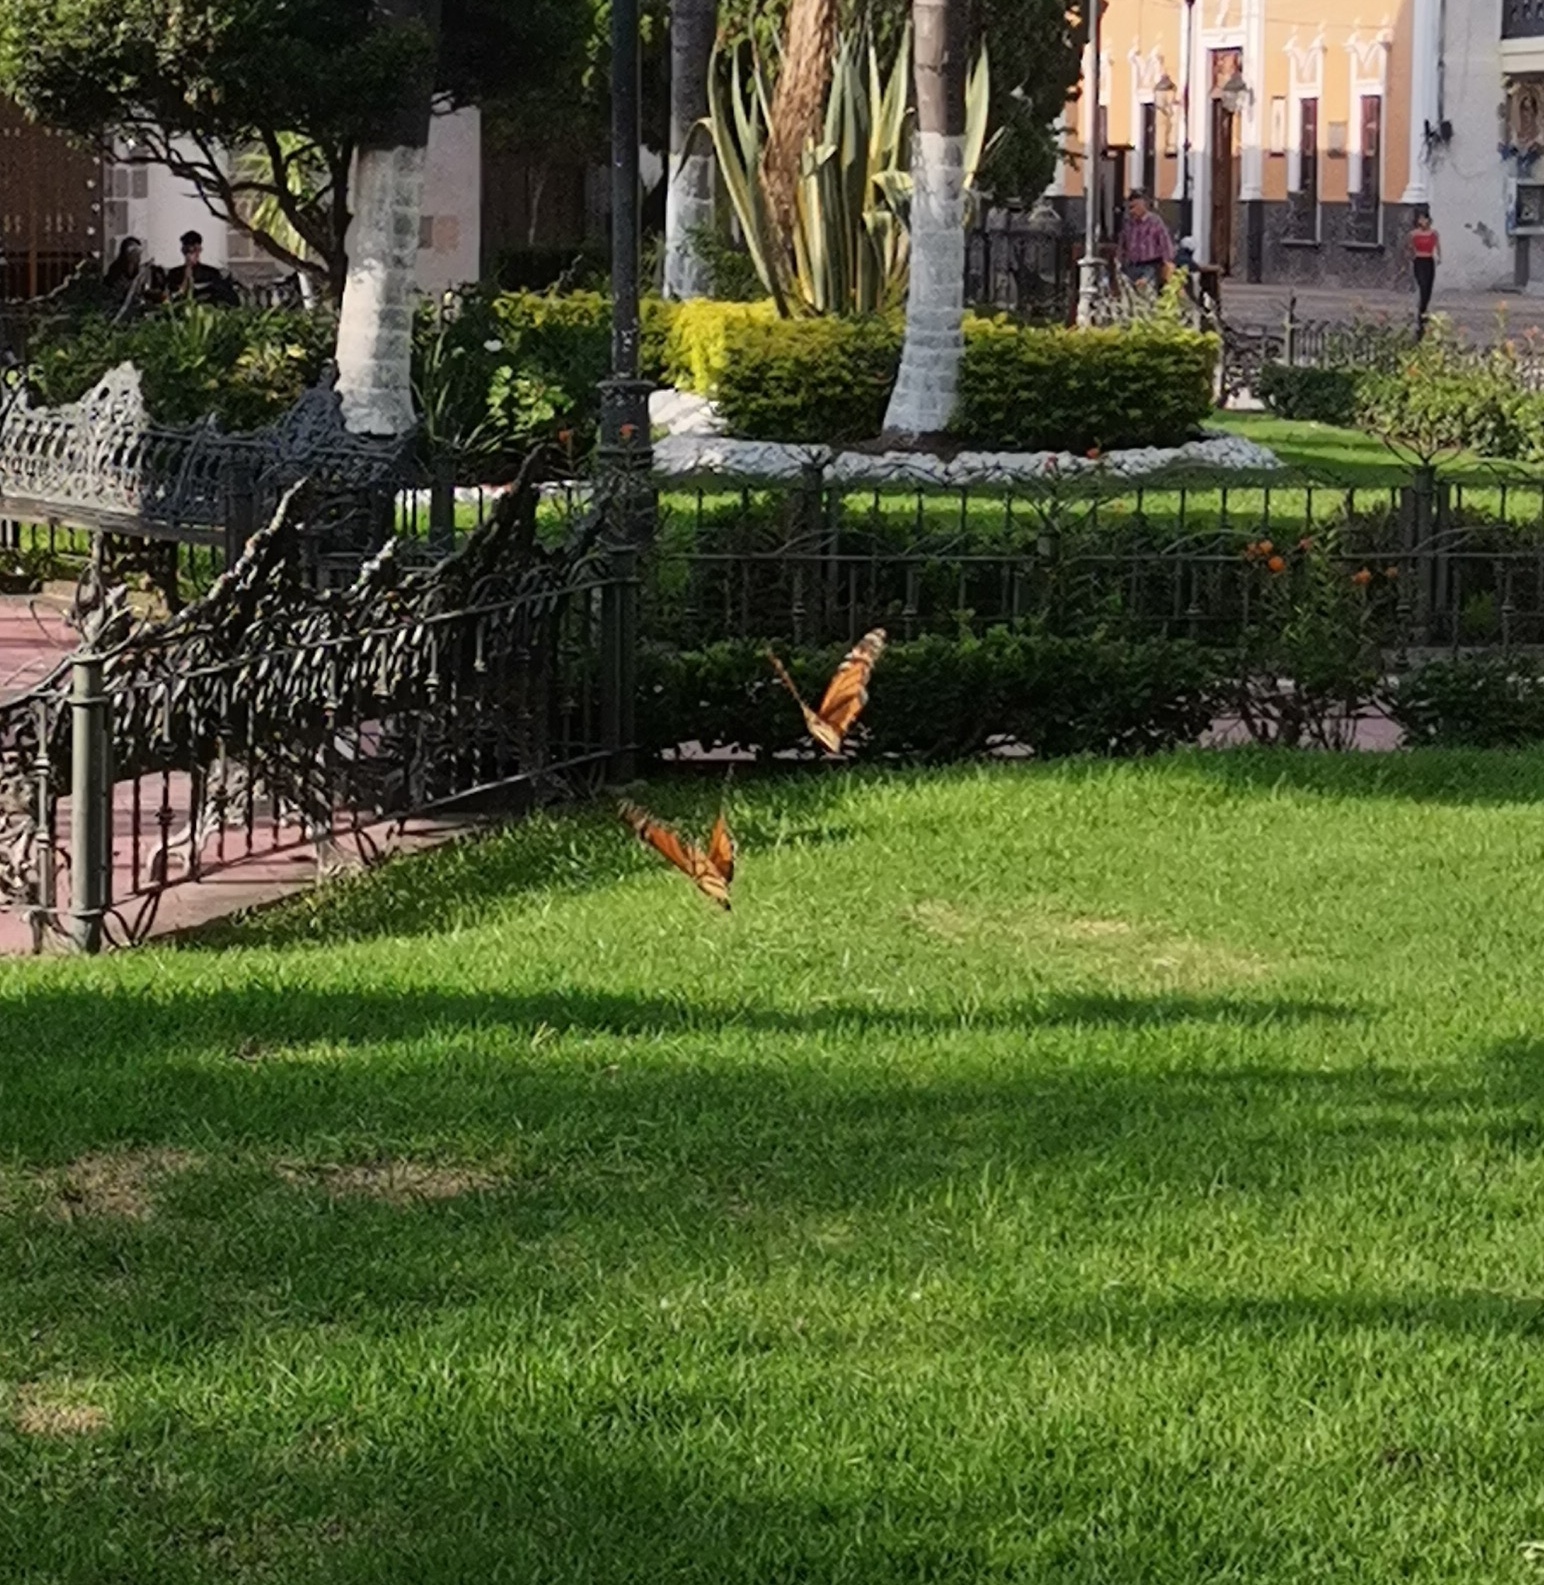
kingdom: Animalia
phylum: Arthropoda
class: Insecta
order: Lepidoptera
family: Nymphalidae
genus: Danaus
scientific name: Danaus plexippus
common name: Monarch
